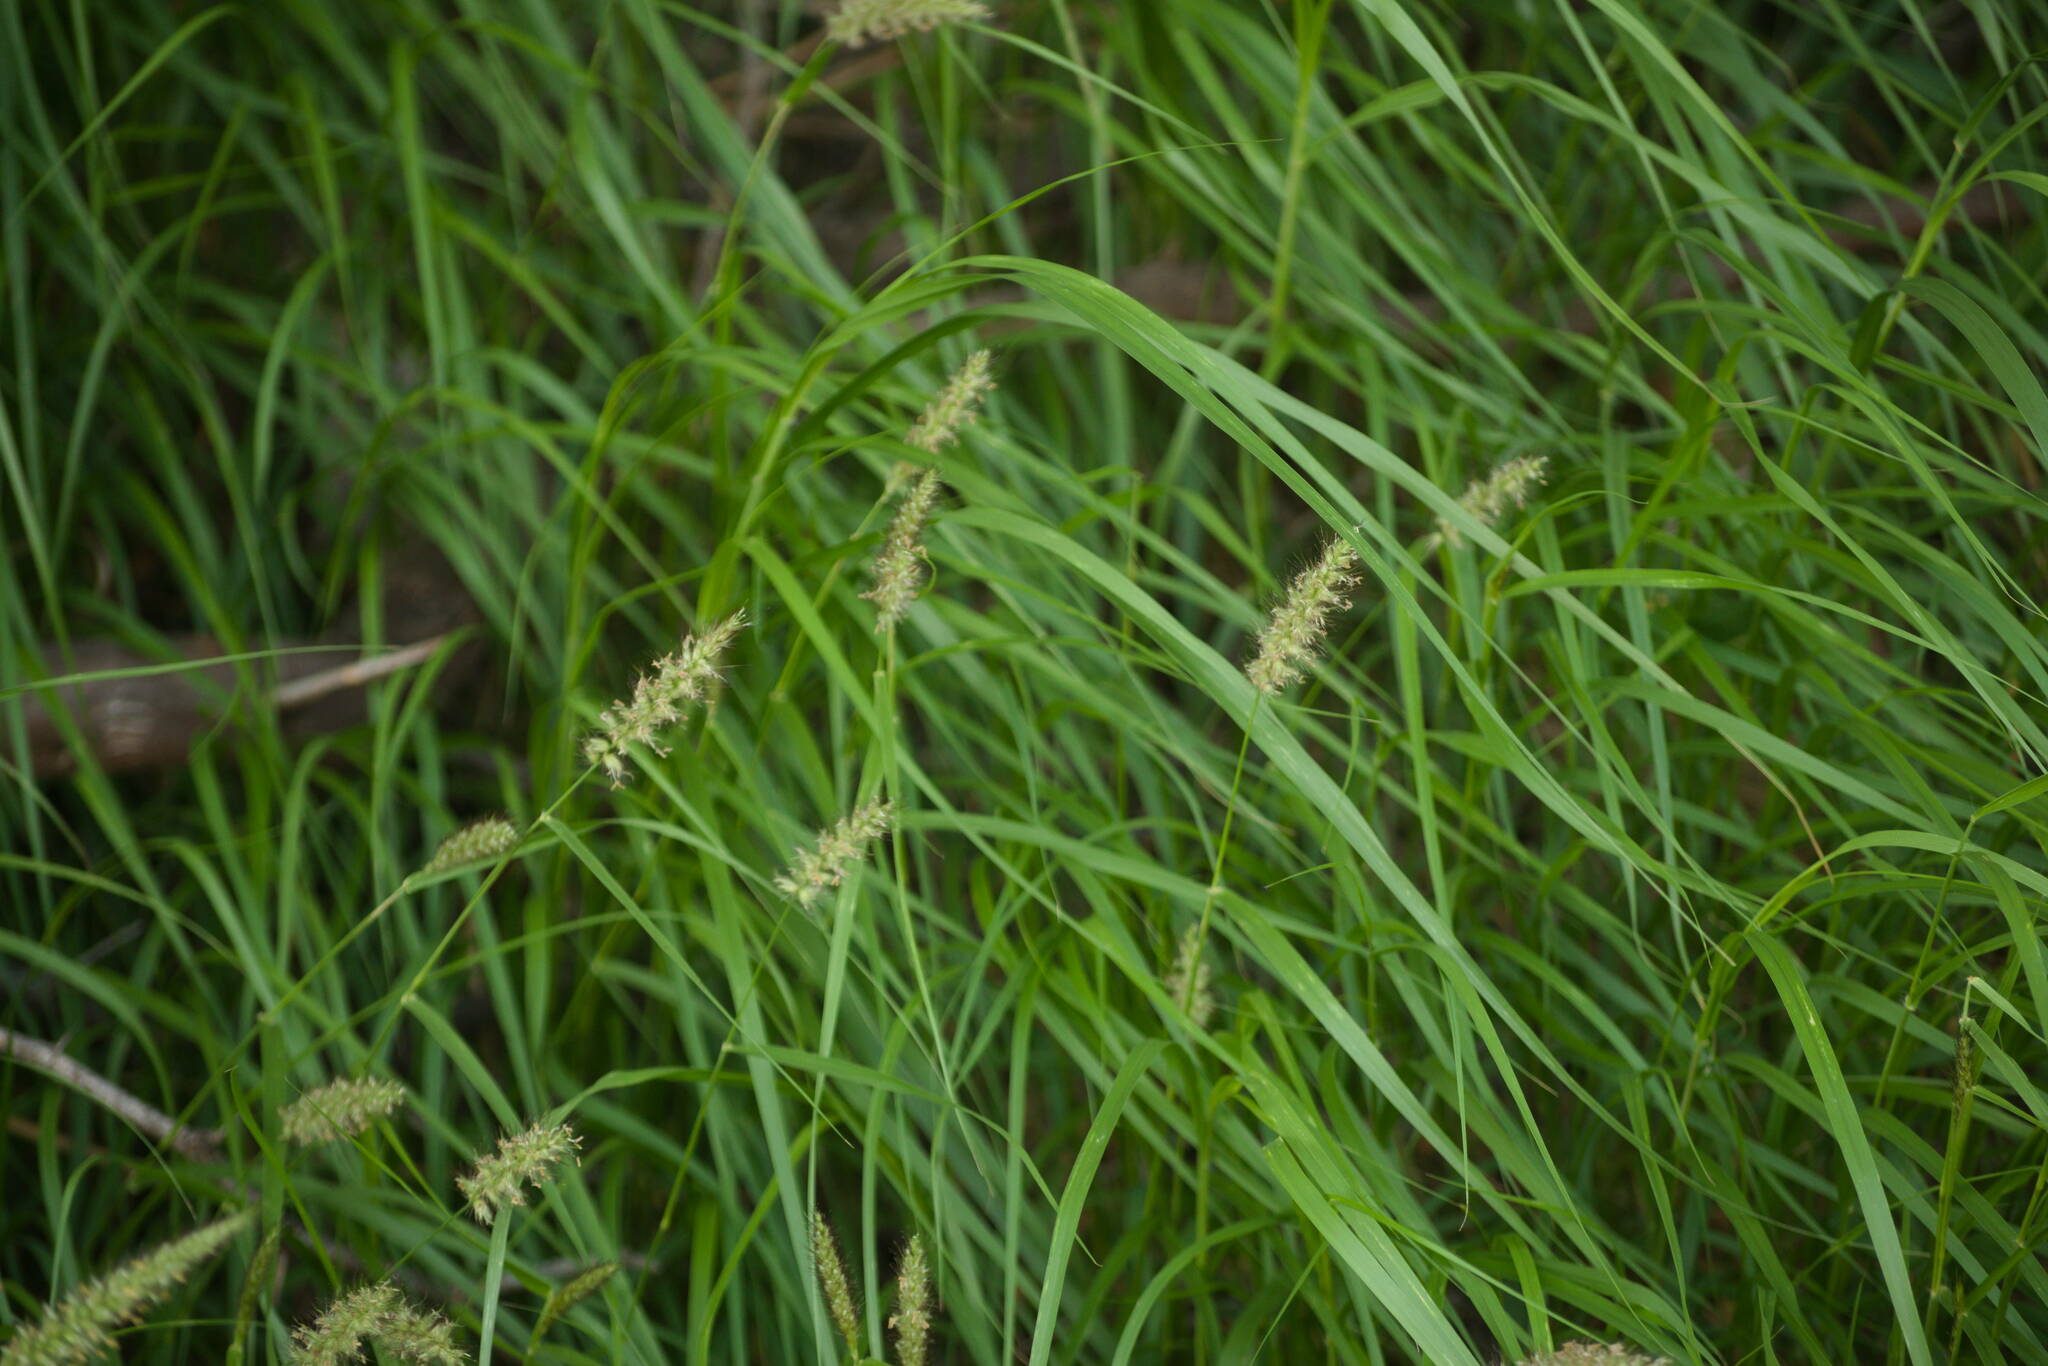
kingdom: Plantae
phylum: Tracheophyta
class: Liliopsida
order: Poales
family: Poaceae
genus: Cenchrus
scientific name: Cenchrus ciliaris
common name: Buffelgrass
